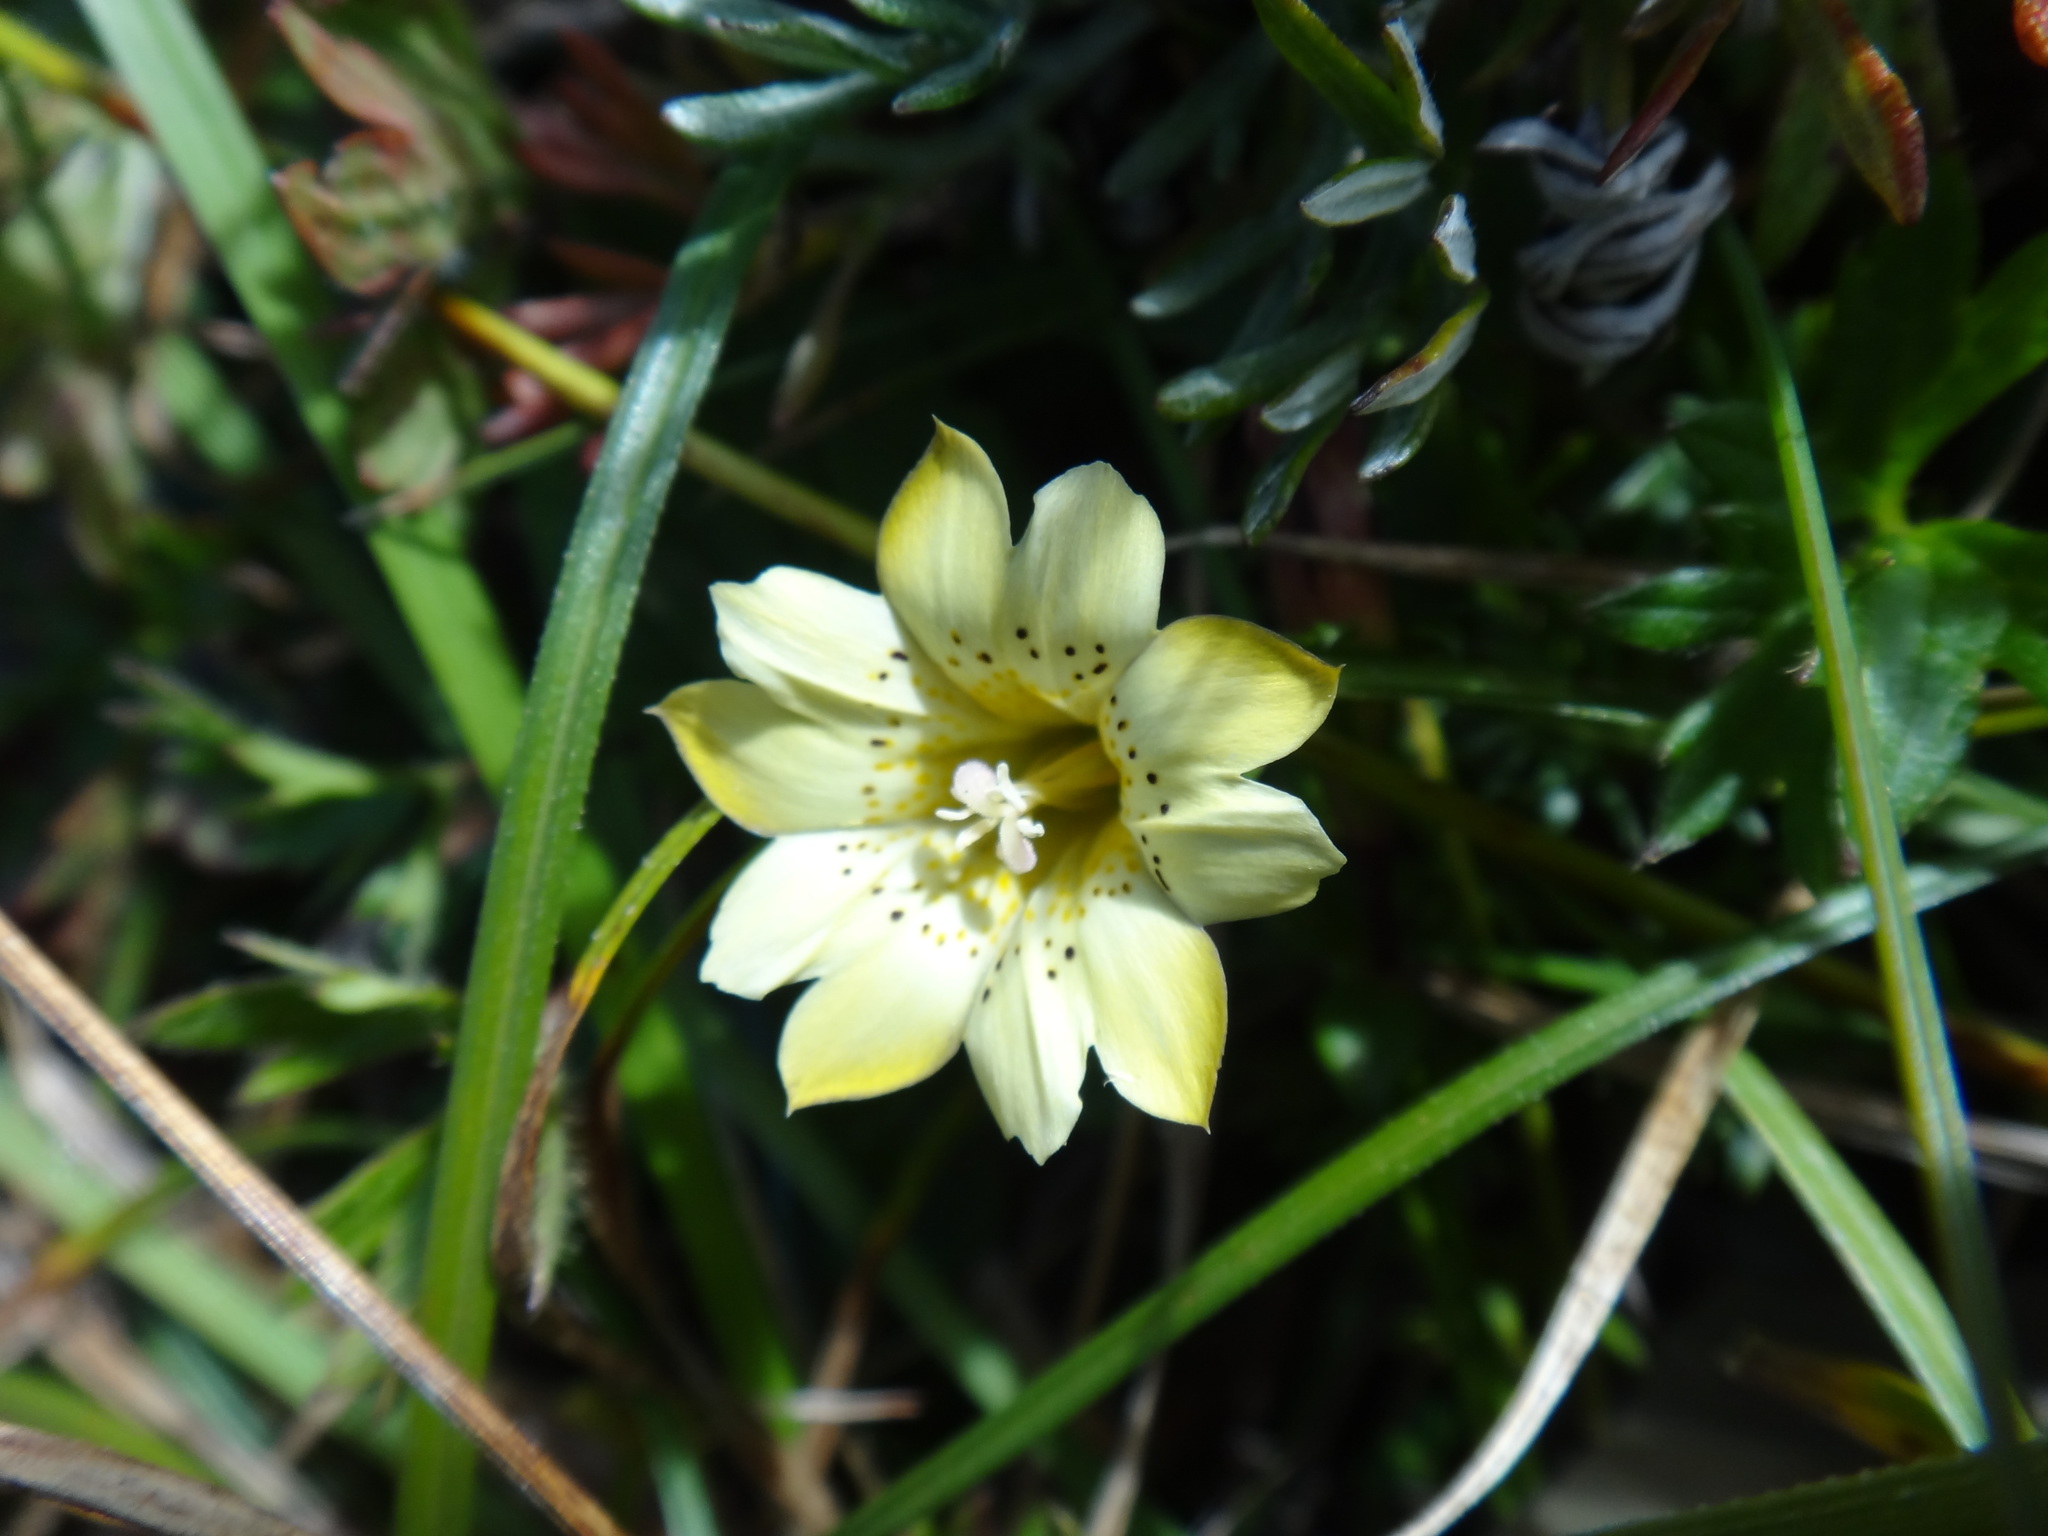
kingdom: Plantae
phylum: Tracheophyta
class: Magnoliopsida
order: Gentianales
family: Gentianaceae
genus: Gentiana
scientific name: Gentiana scabrida
